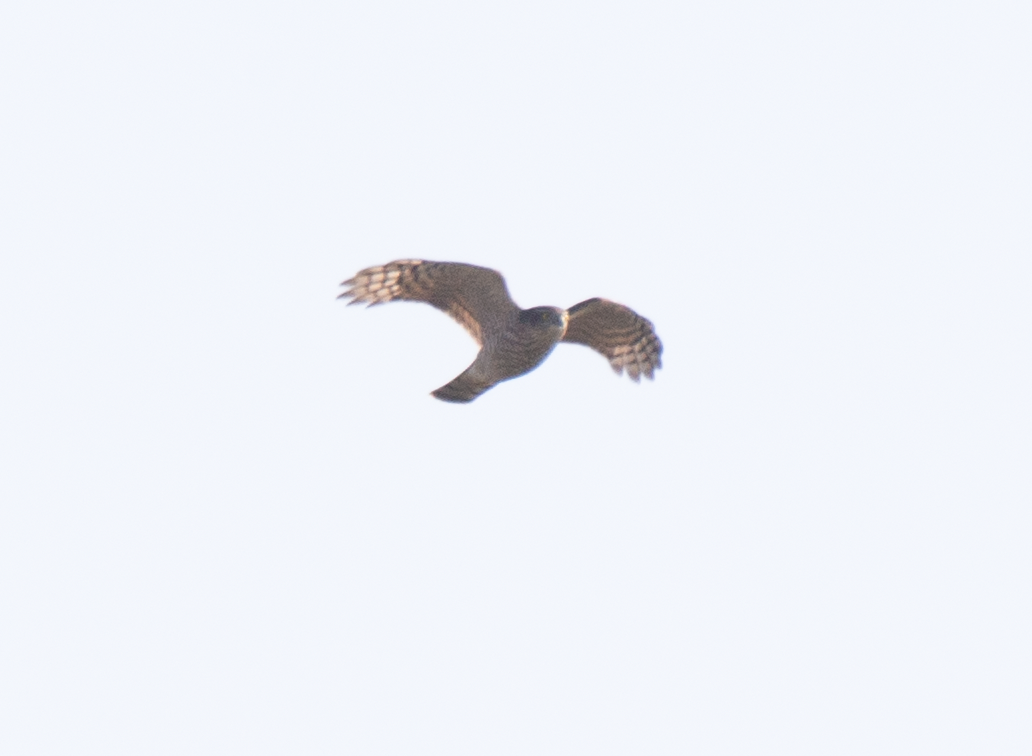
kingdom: Animalia
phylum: Chordata
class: Aves
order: Accipitriformes
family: Accipitridae
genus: Accipiter
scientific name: Accipiter nisus
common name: Eurasian sparrowhawk
